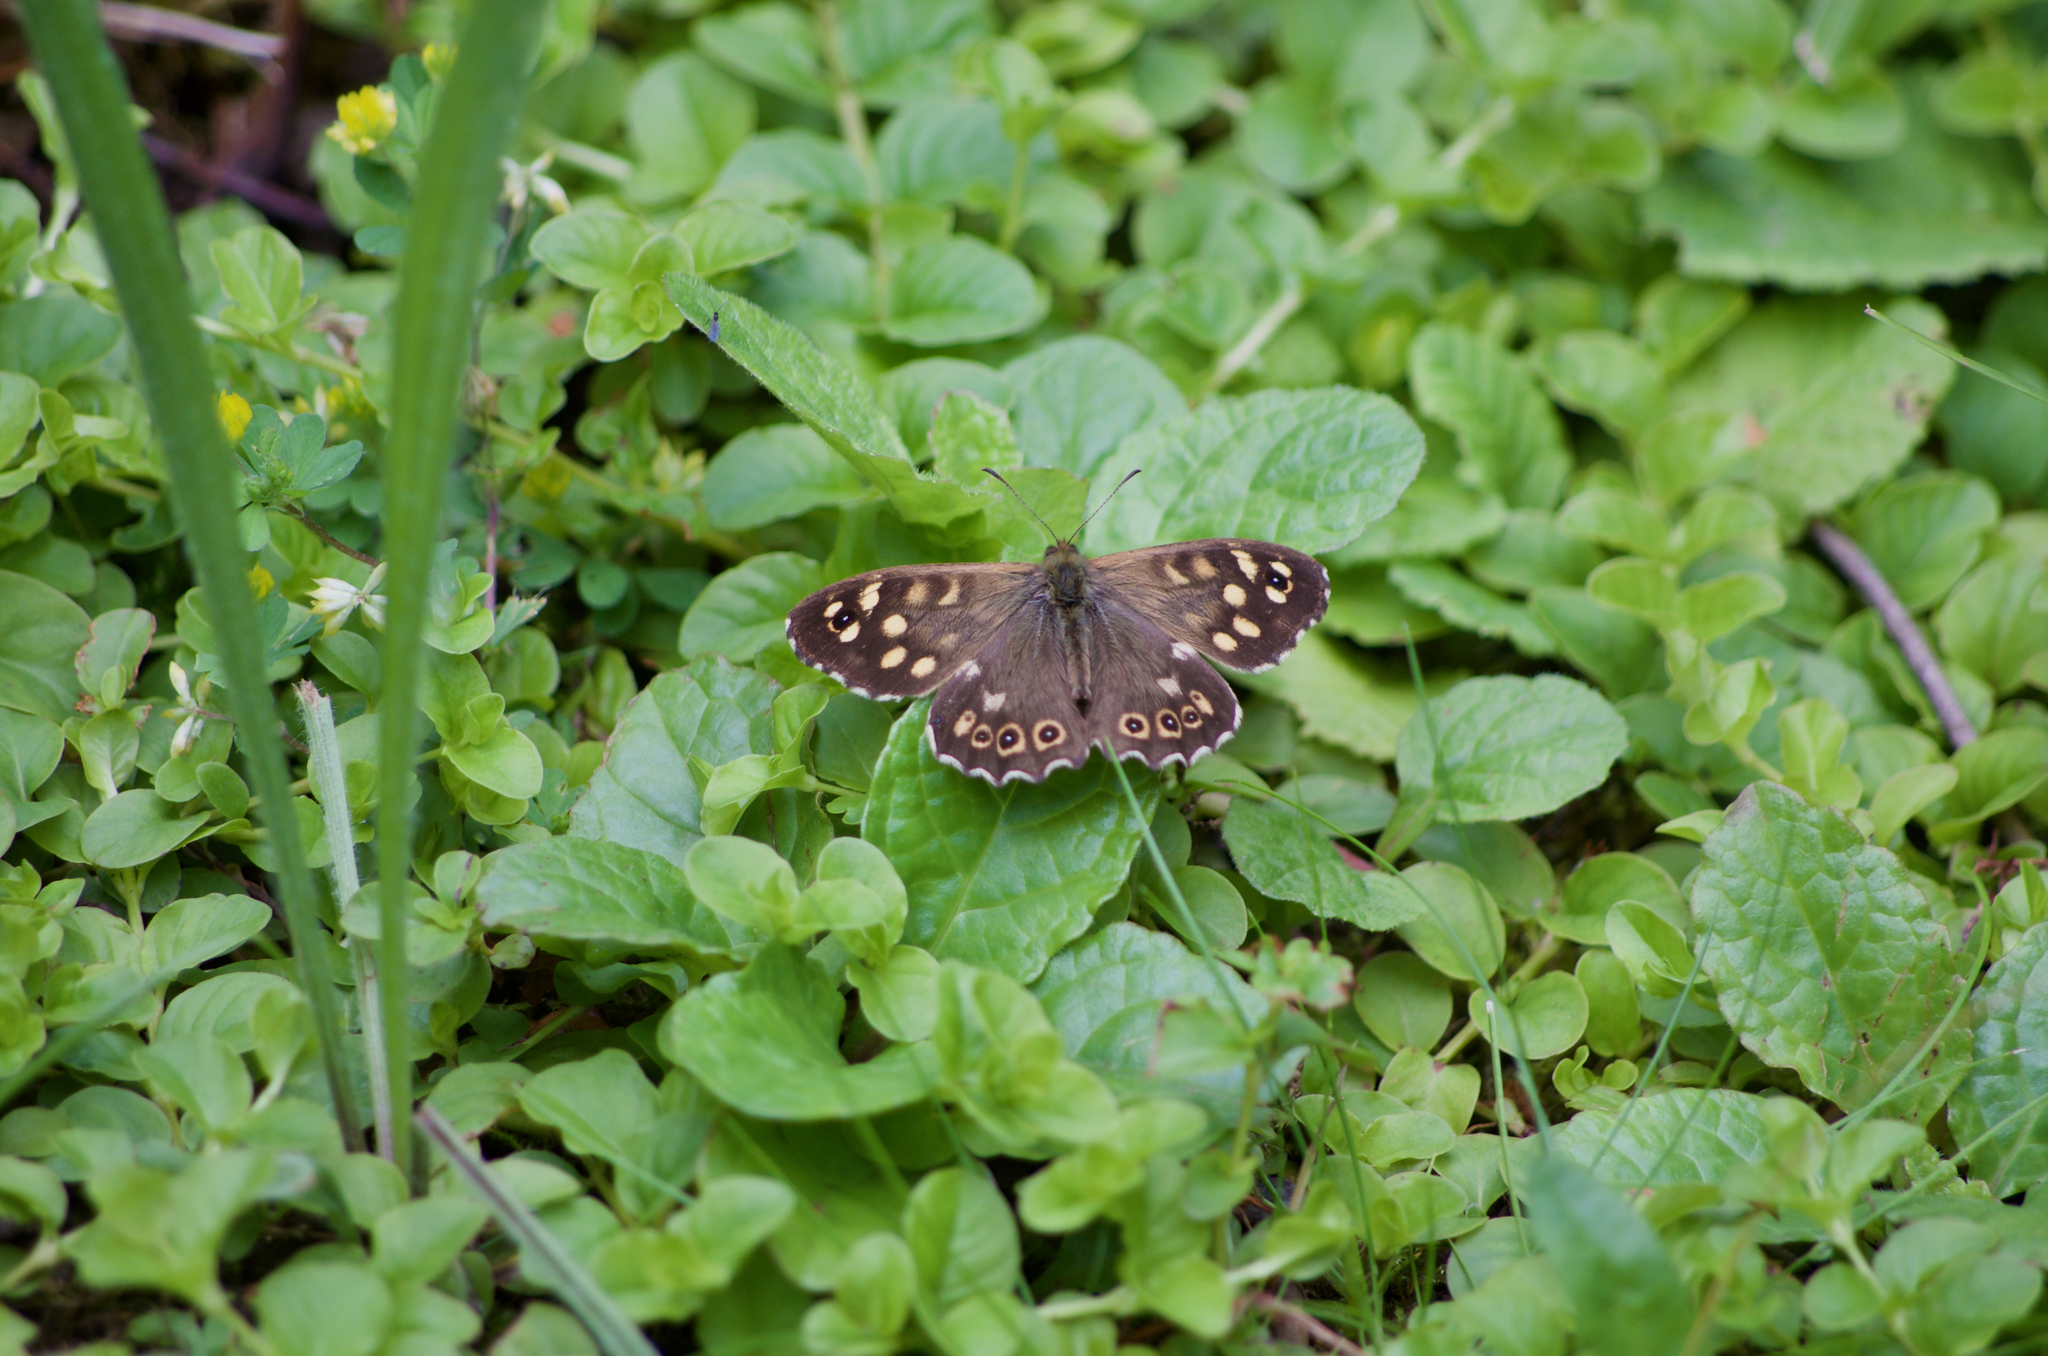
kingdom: Animalia
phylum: Arthropoda
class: Insecta
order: Lepidoptera
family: Nymphalidae
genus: Pararge
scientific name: Pararge aegeria
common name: Speckled wood
